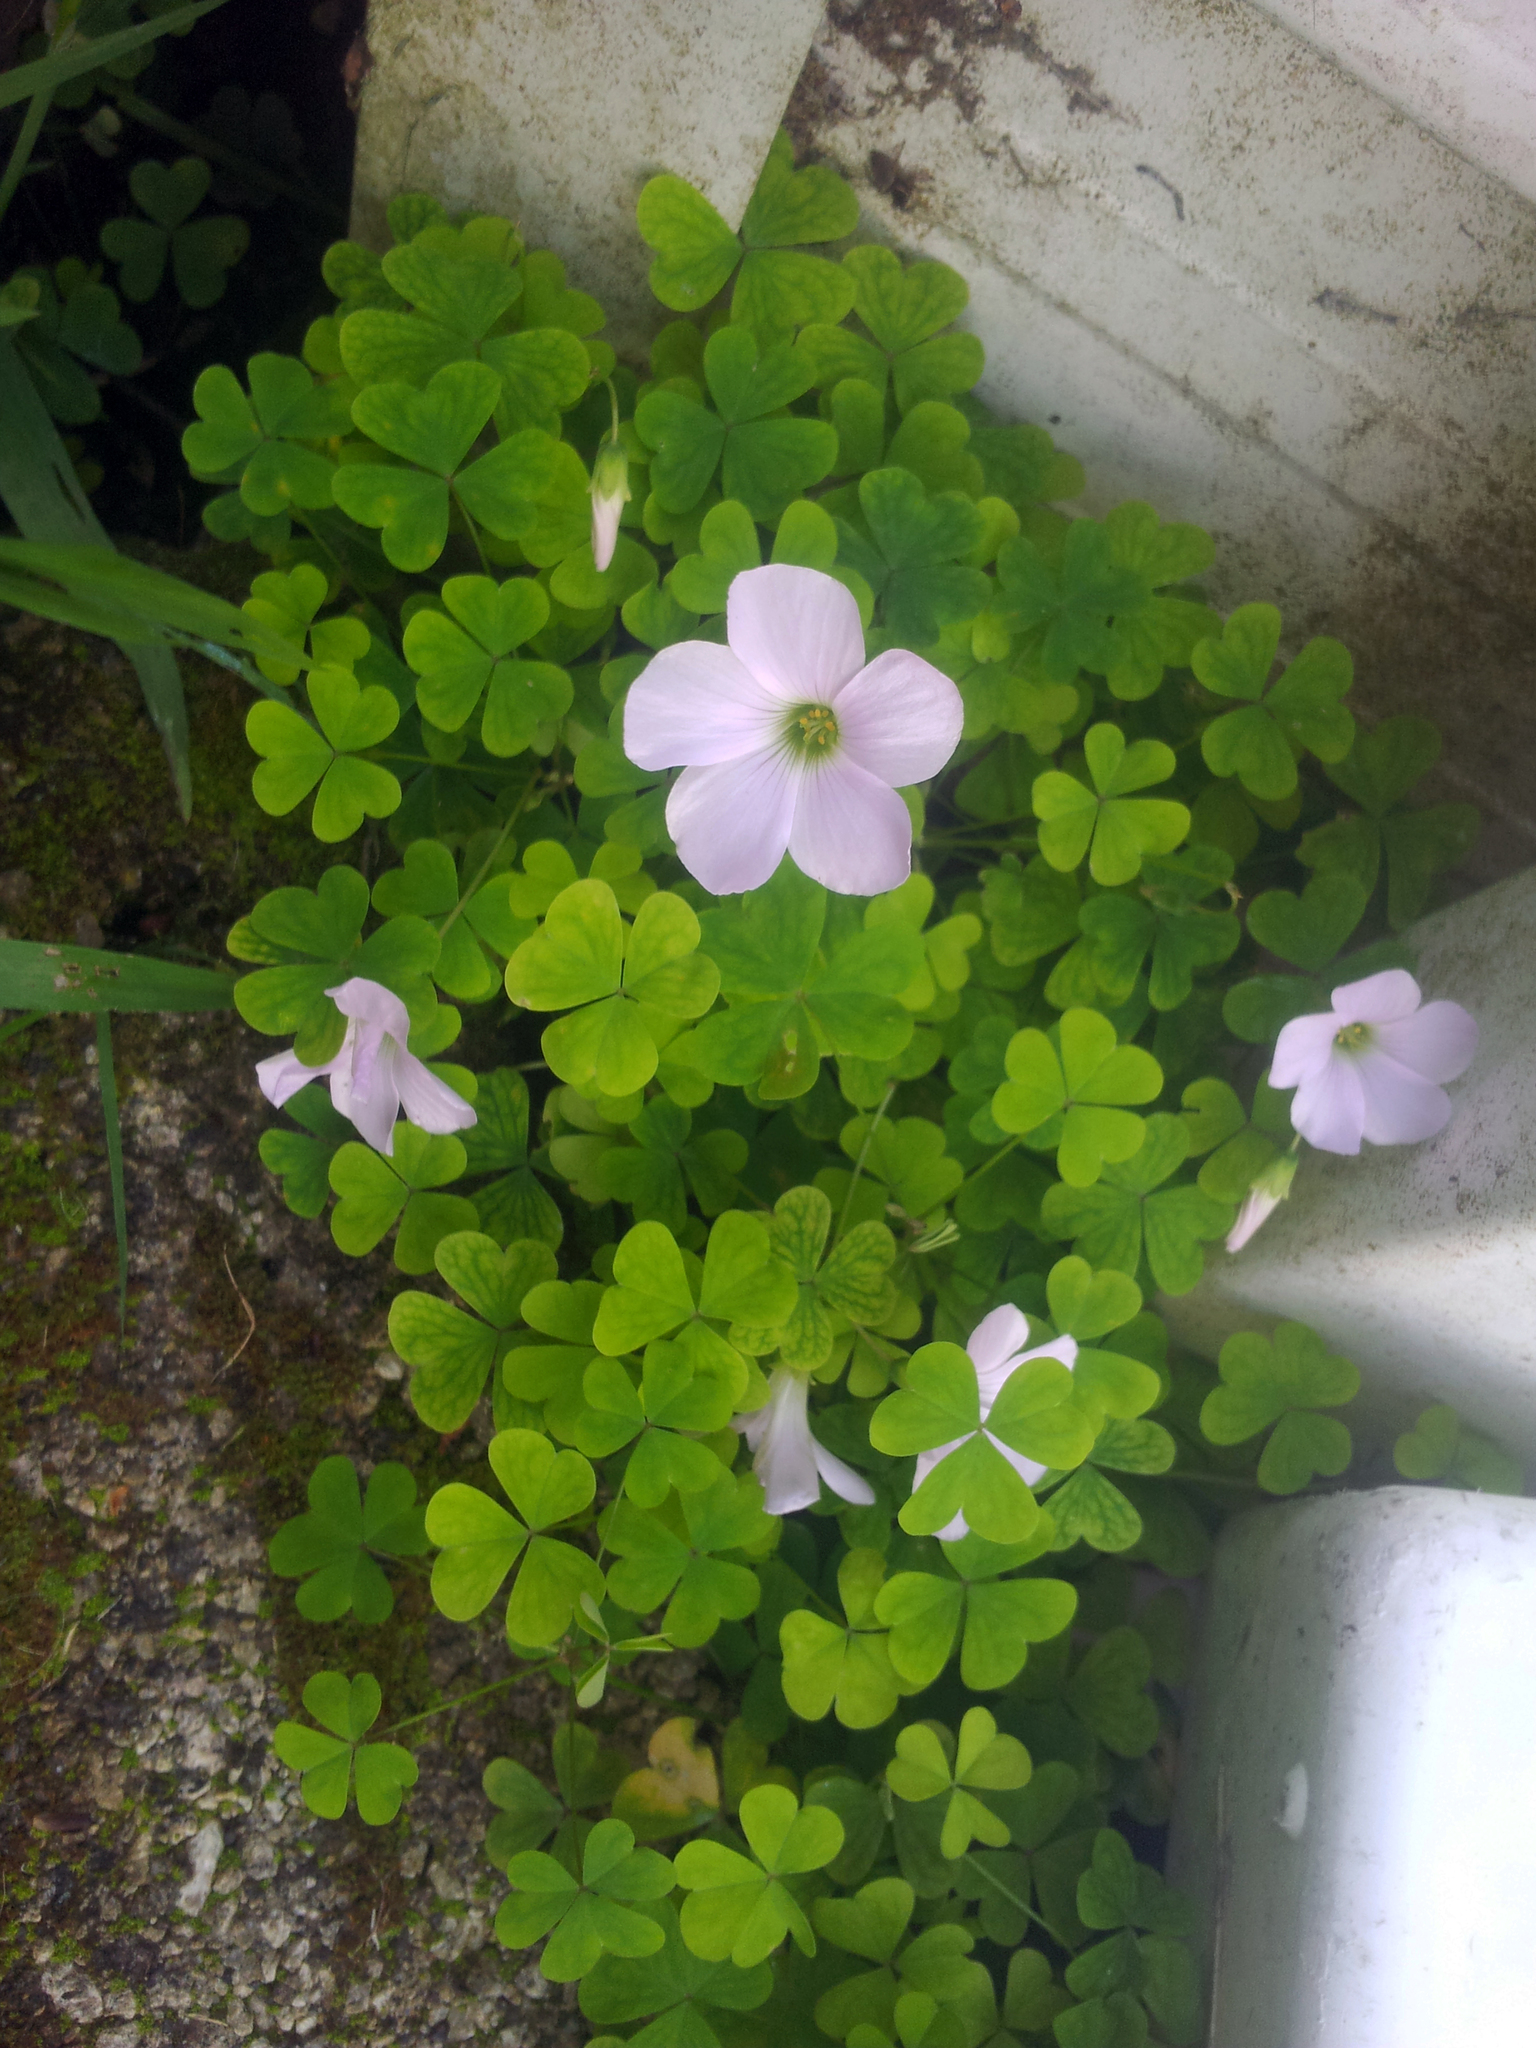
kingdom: Plantae
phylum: Tracheophyta
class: Magnoliopsida
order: Oxalidales
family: Oxalidaceae
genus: Oxalis
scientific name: Oxalis incarnata
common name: Pale pink-sorrel
